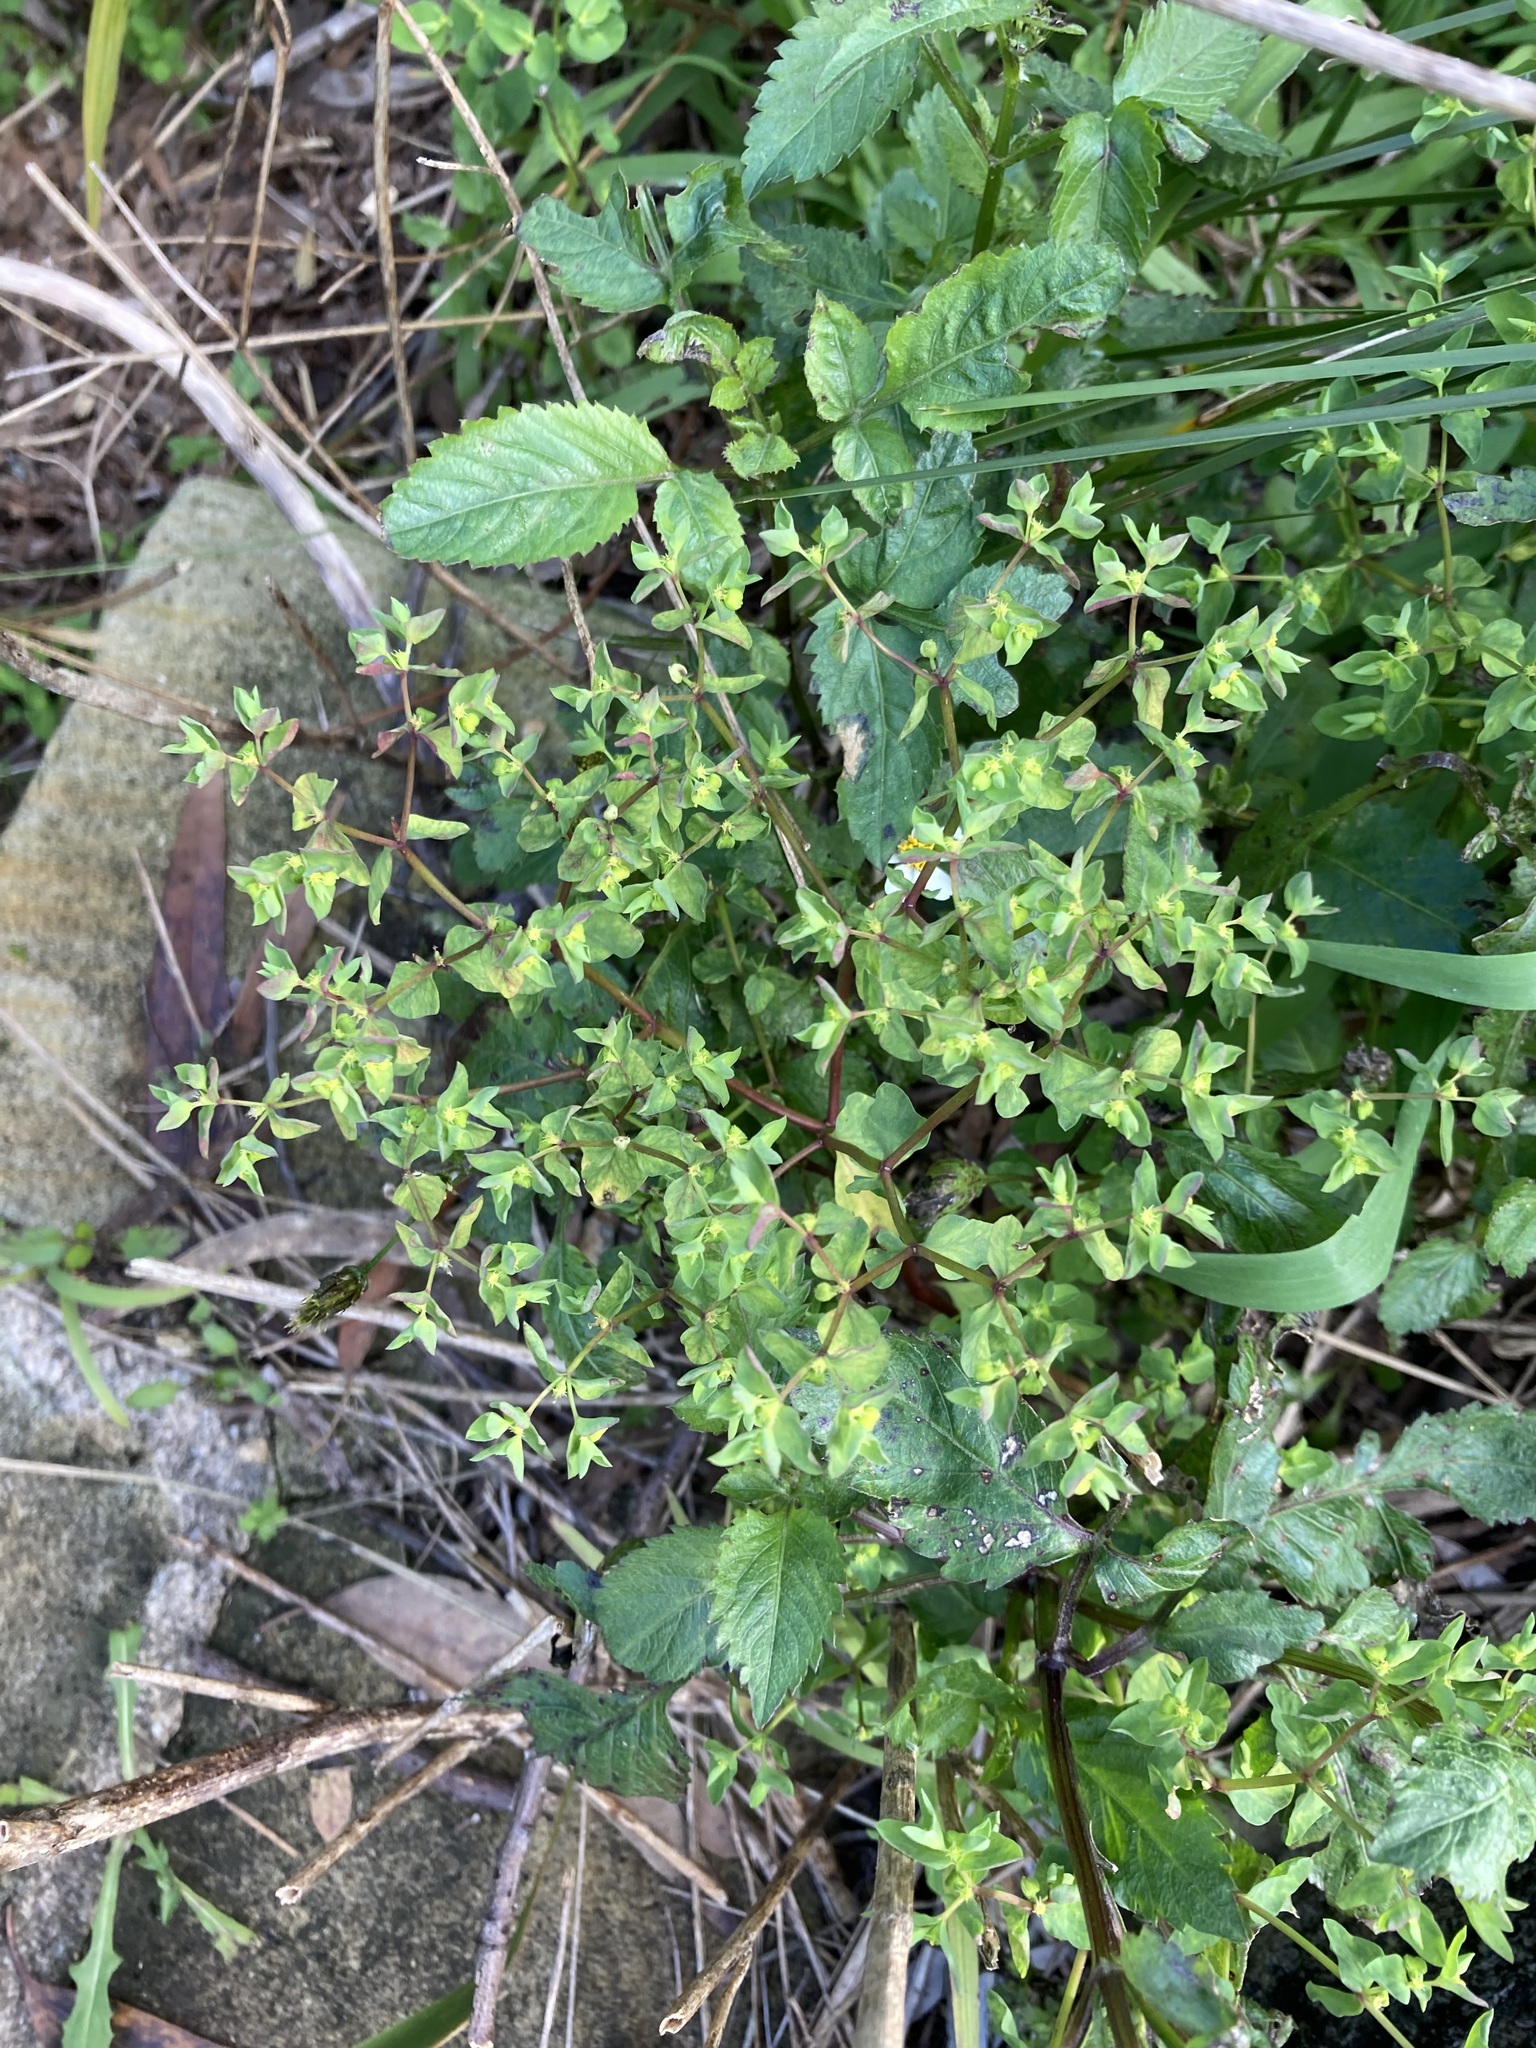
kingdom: Plantae
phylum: Tracheophyta
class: Magnoliopsida
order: Malpighiales
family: Euphorbiaceae
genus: Euphorbia
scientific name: Euphorbia peplus
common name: Petty spurge
